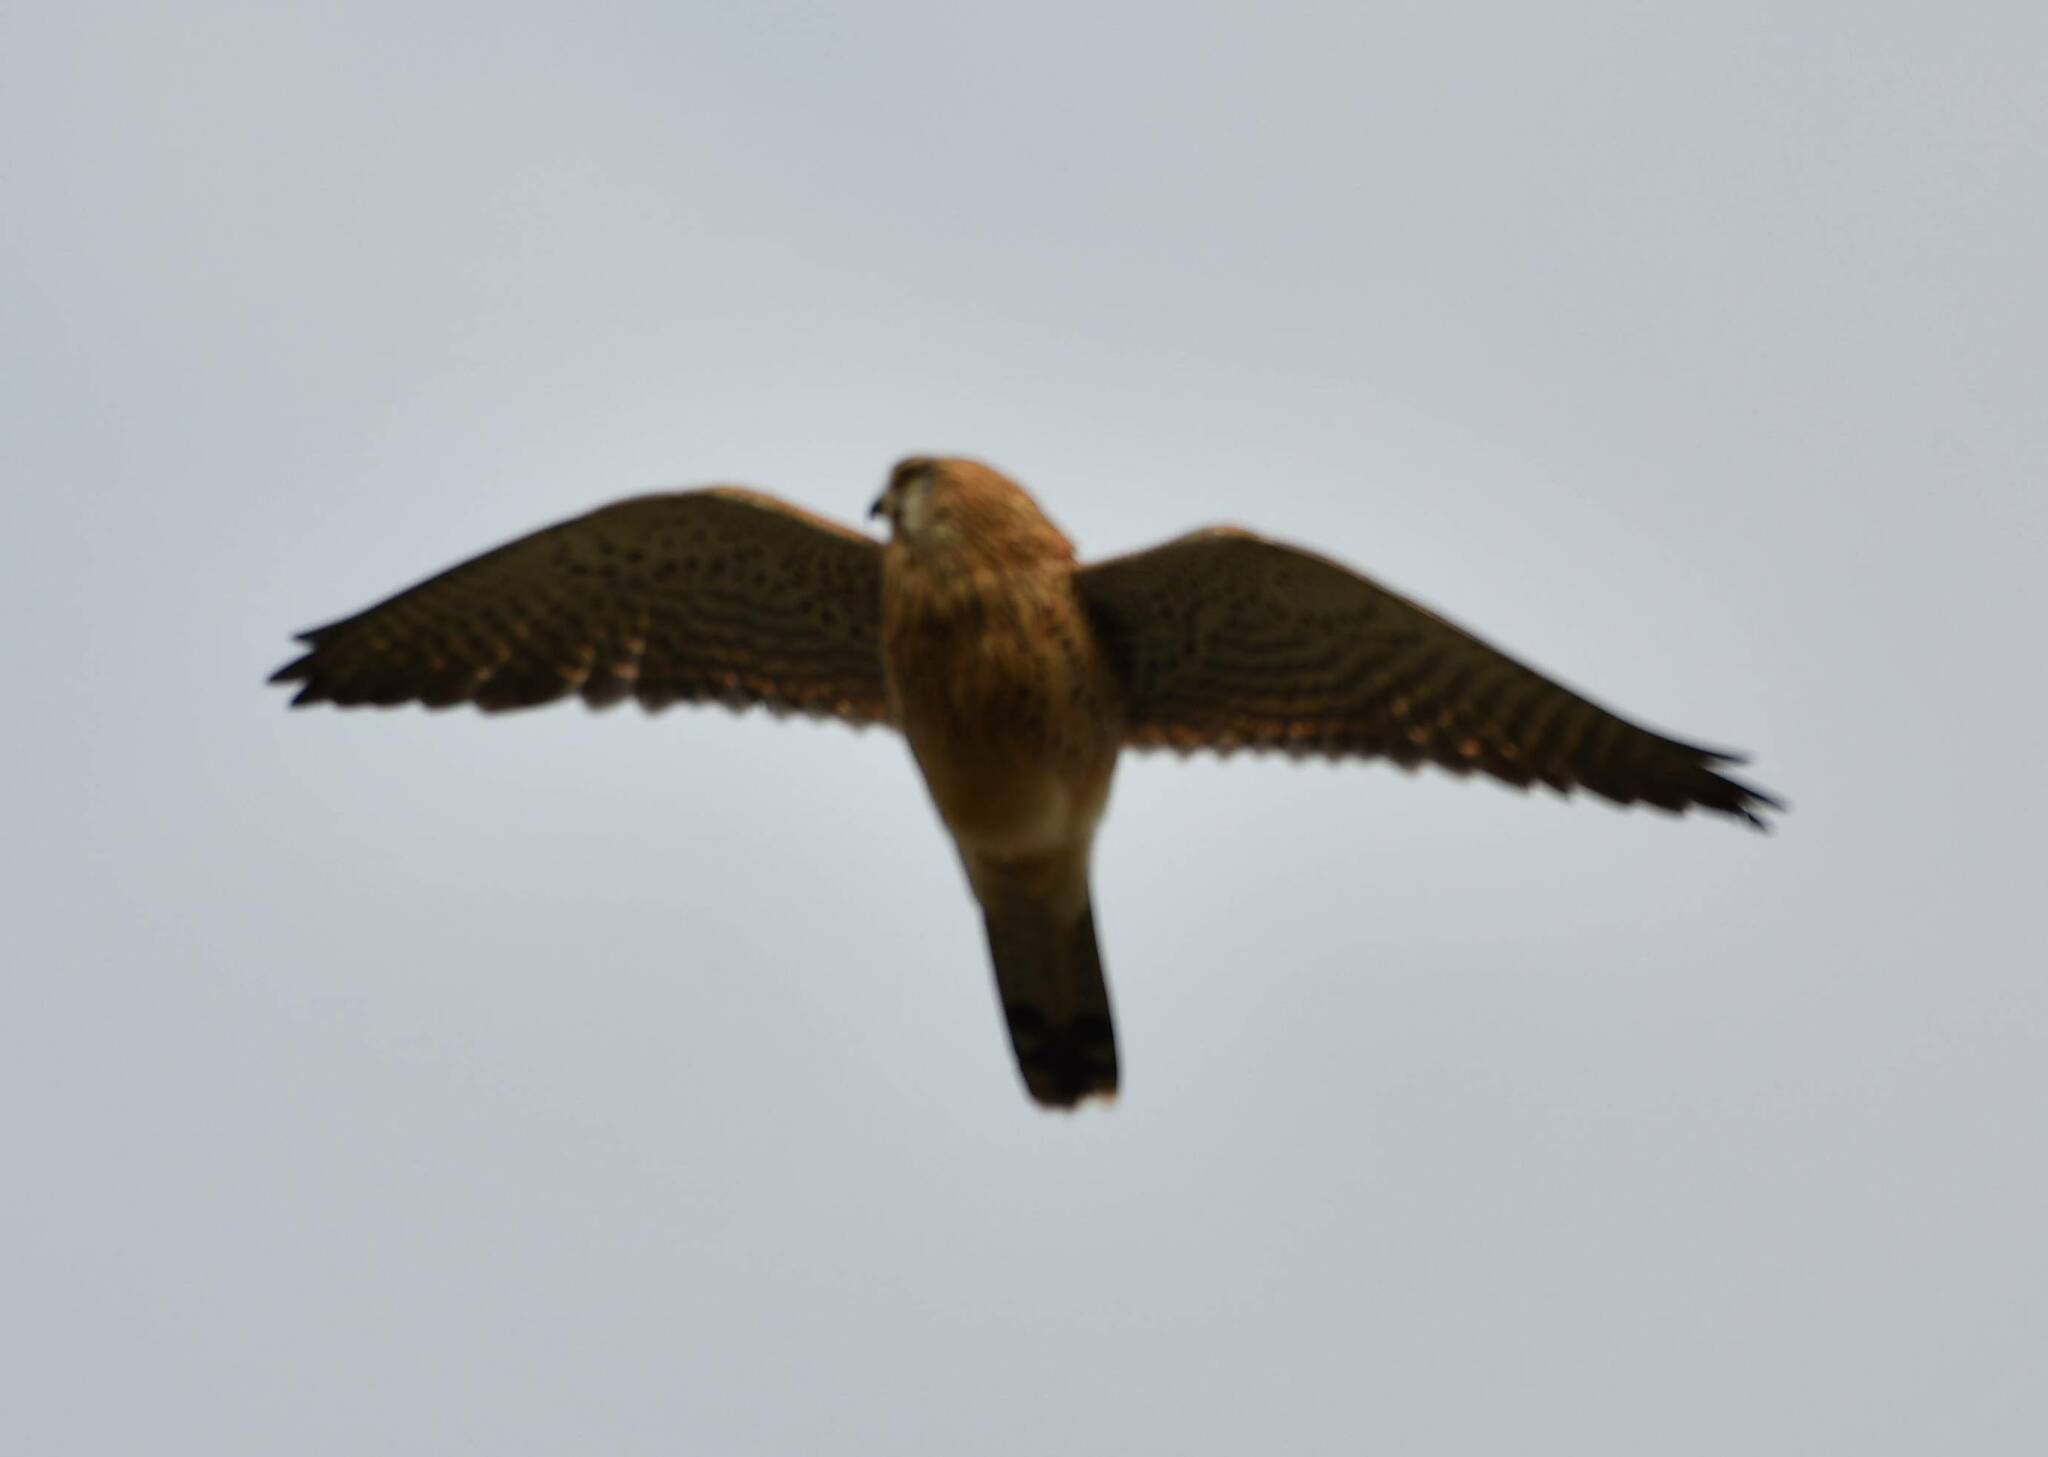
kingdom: Animalia
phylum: Chordata
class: Aves
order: Falconiformes
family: Falconidae
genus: Falco
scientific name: Falco tinnunculus
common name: Common kestrel
